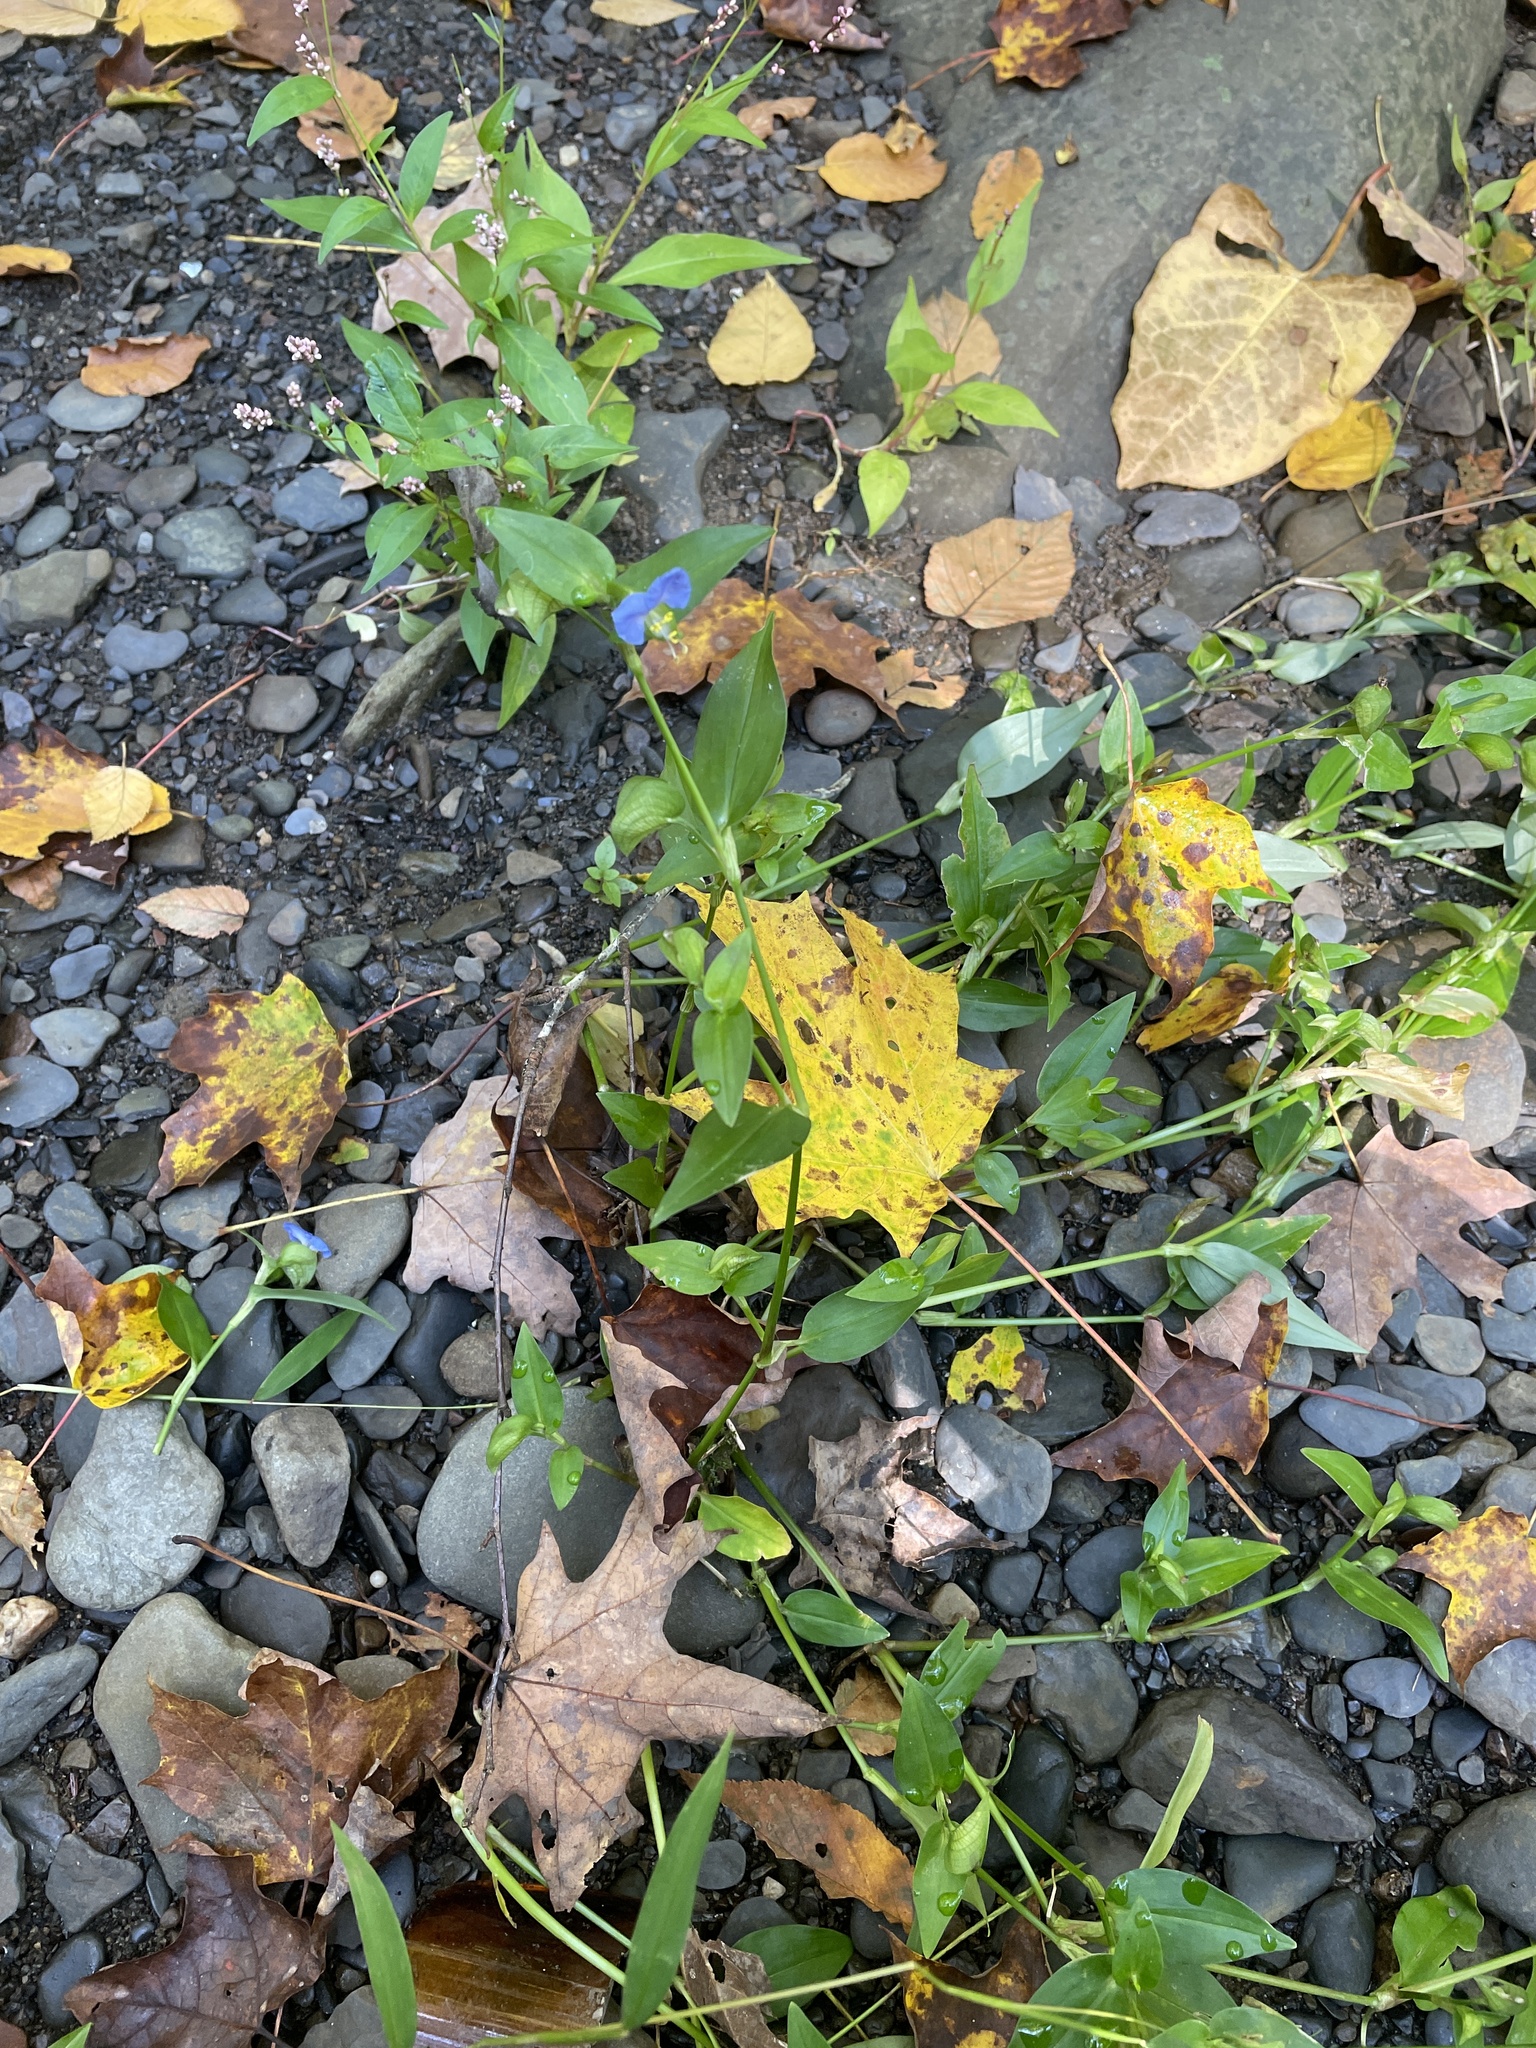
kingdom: Plantae
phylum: Tracheophyta
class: Liliopsida
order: Commelinales
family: Commelinaceae
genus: Commelina
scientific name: Commelina communis
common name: Asiatic dayflower
